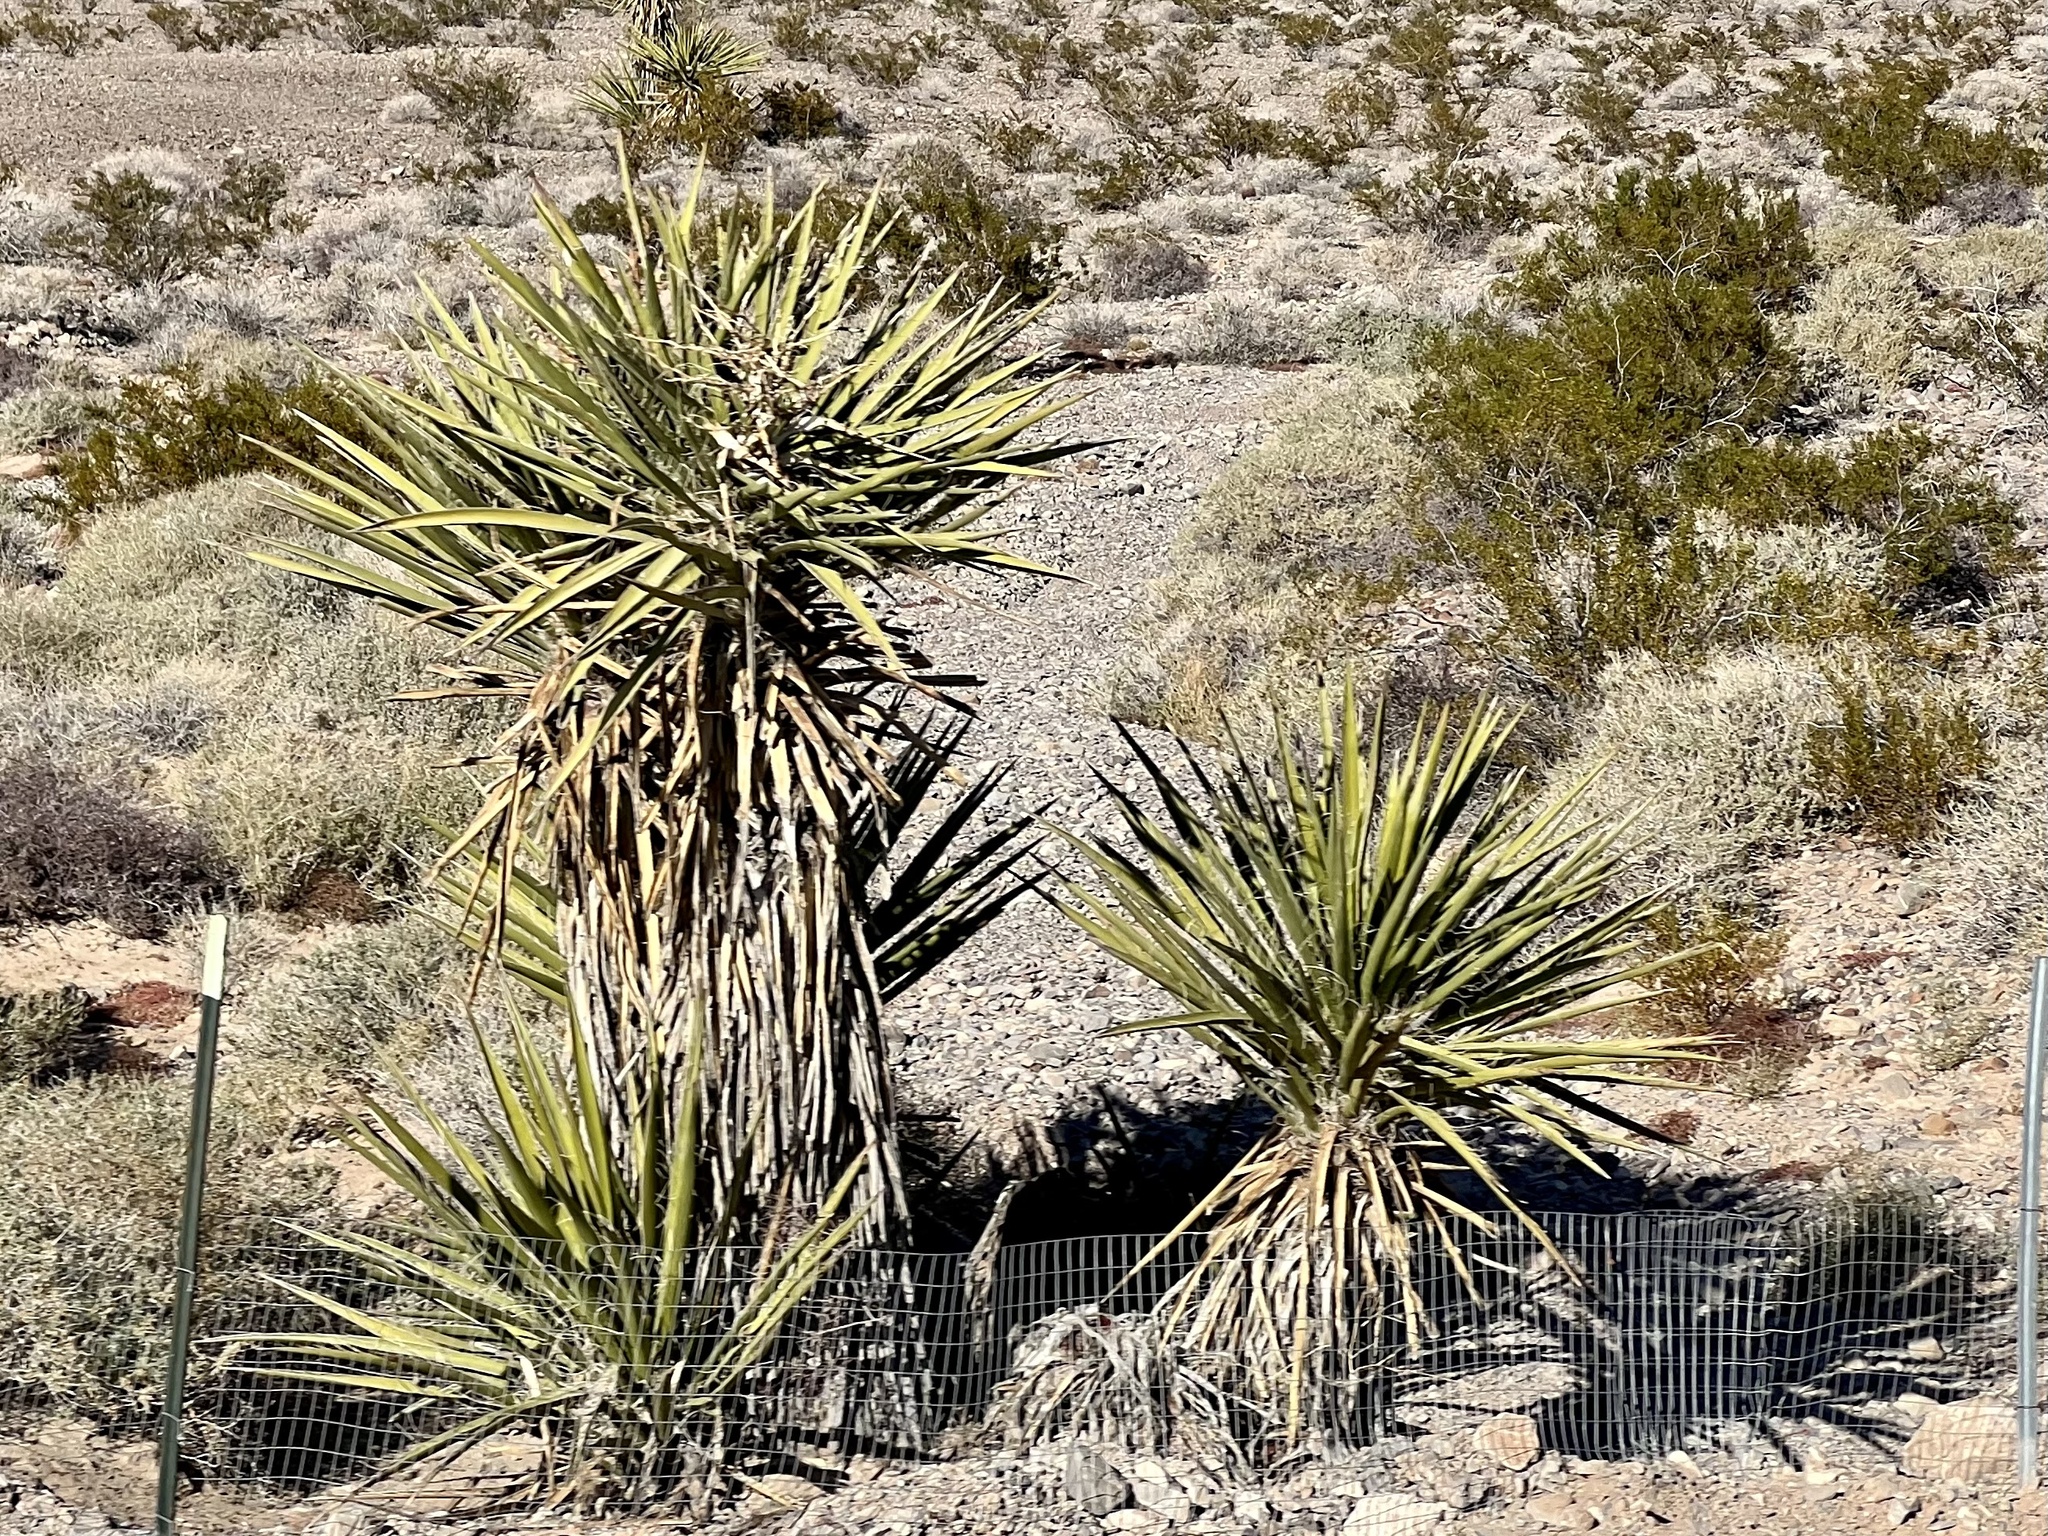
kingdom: Plantae
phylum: Tracheophyta
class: Liliopsida
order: Asparagales
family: Asparagaceae
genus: Yucca
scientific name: Yucca schidigera
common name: Mojave yucca
